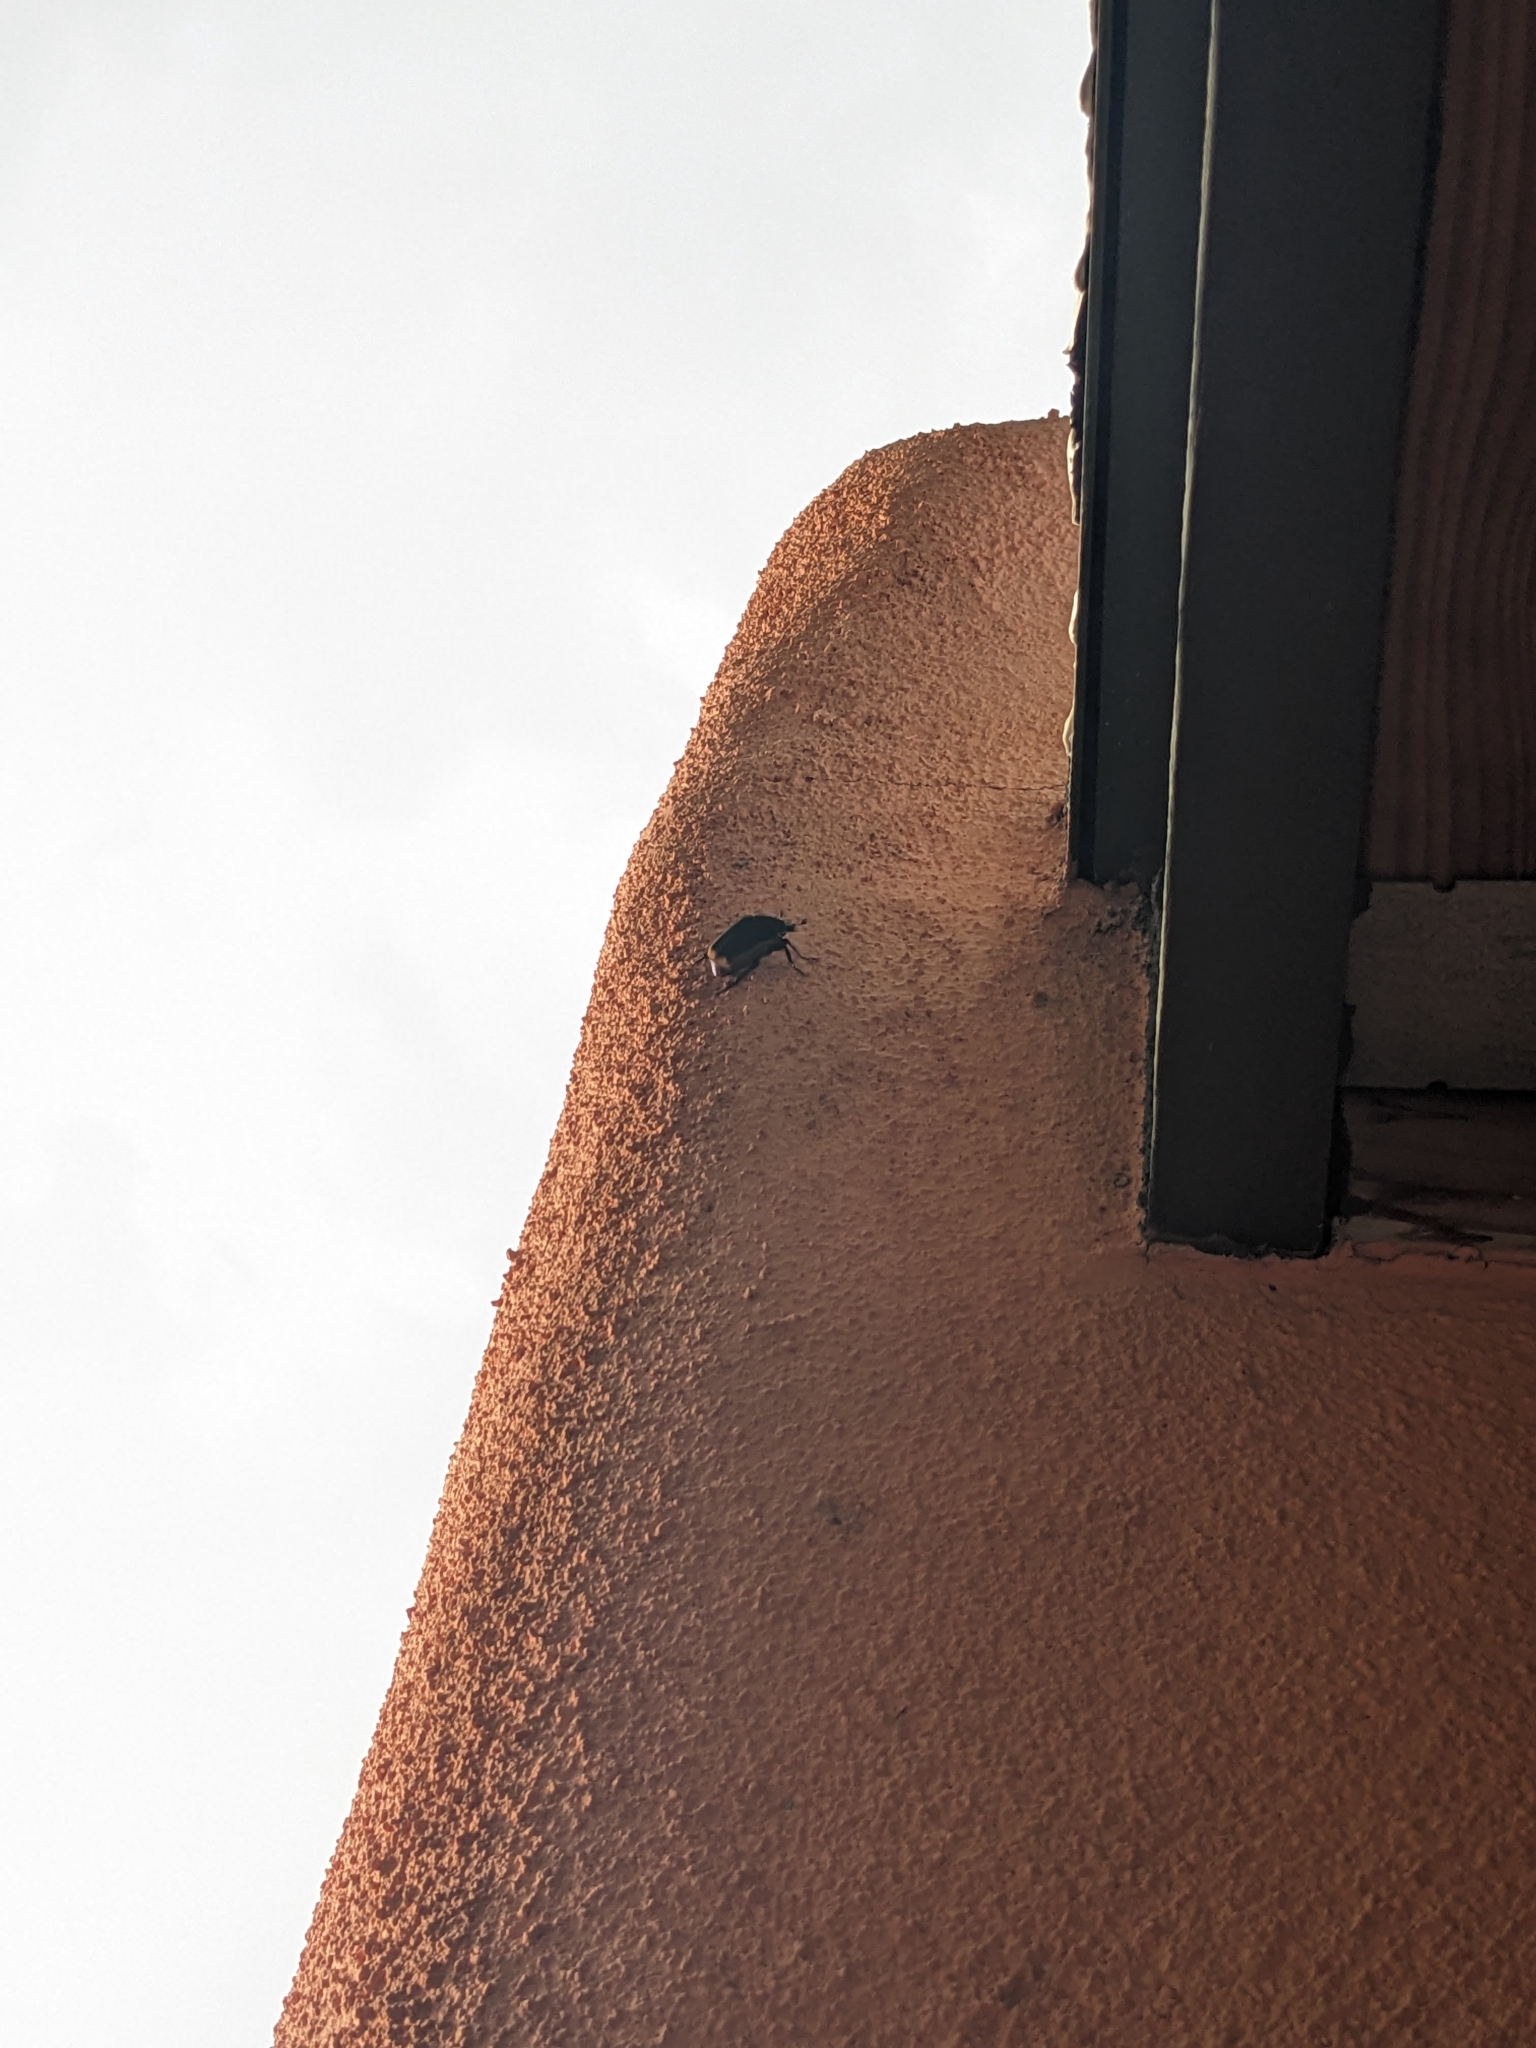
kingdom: Animalia
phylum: Arthropoda
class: Insecta
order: Coleoptera
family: Scarabaeidae
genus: Cotinis
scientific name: Cotinis mutabilis
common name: Figeater beetle
